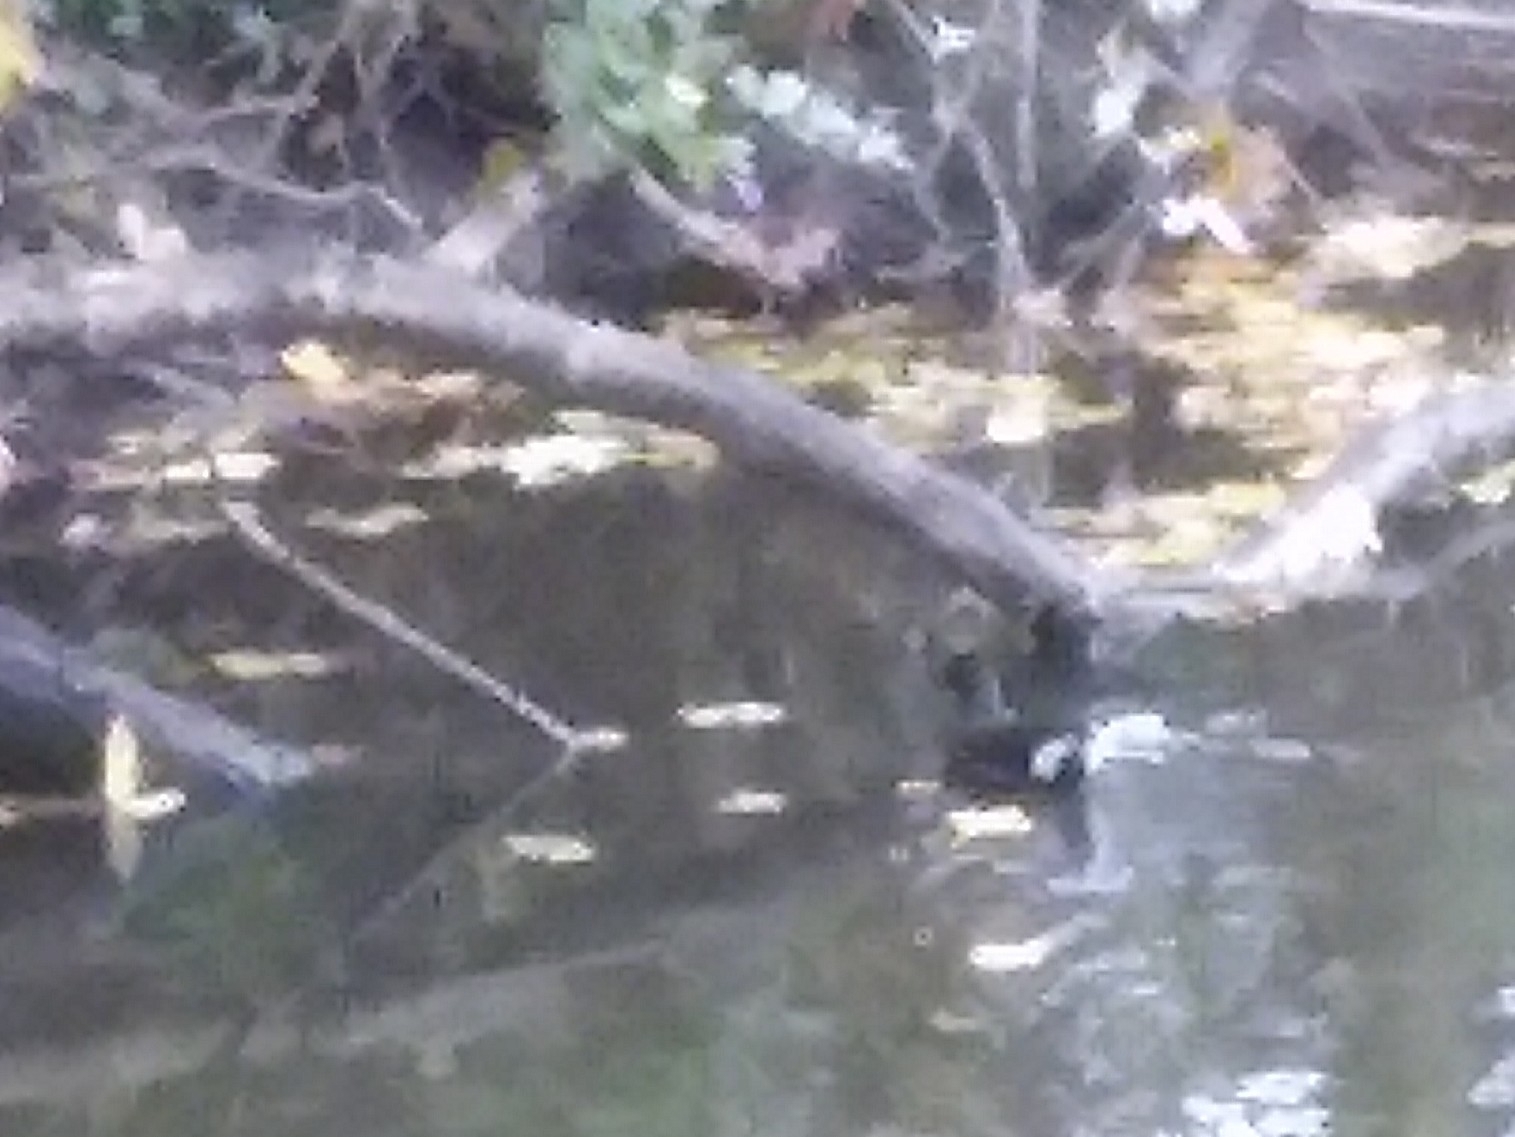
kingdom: Animalia
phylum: Chordata
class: Aves
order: Gruiformes
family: Rallidae
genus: Gallinula
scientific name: Gallinula chloropus
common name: Common moorhen
